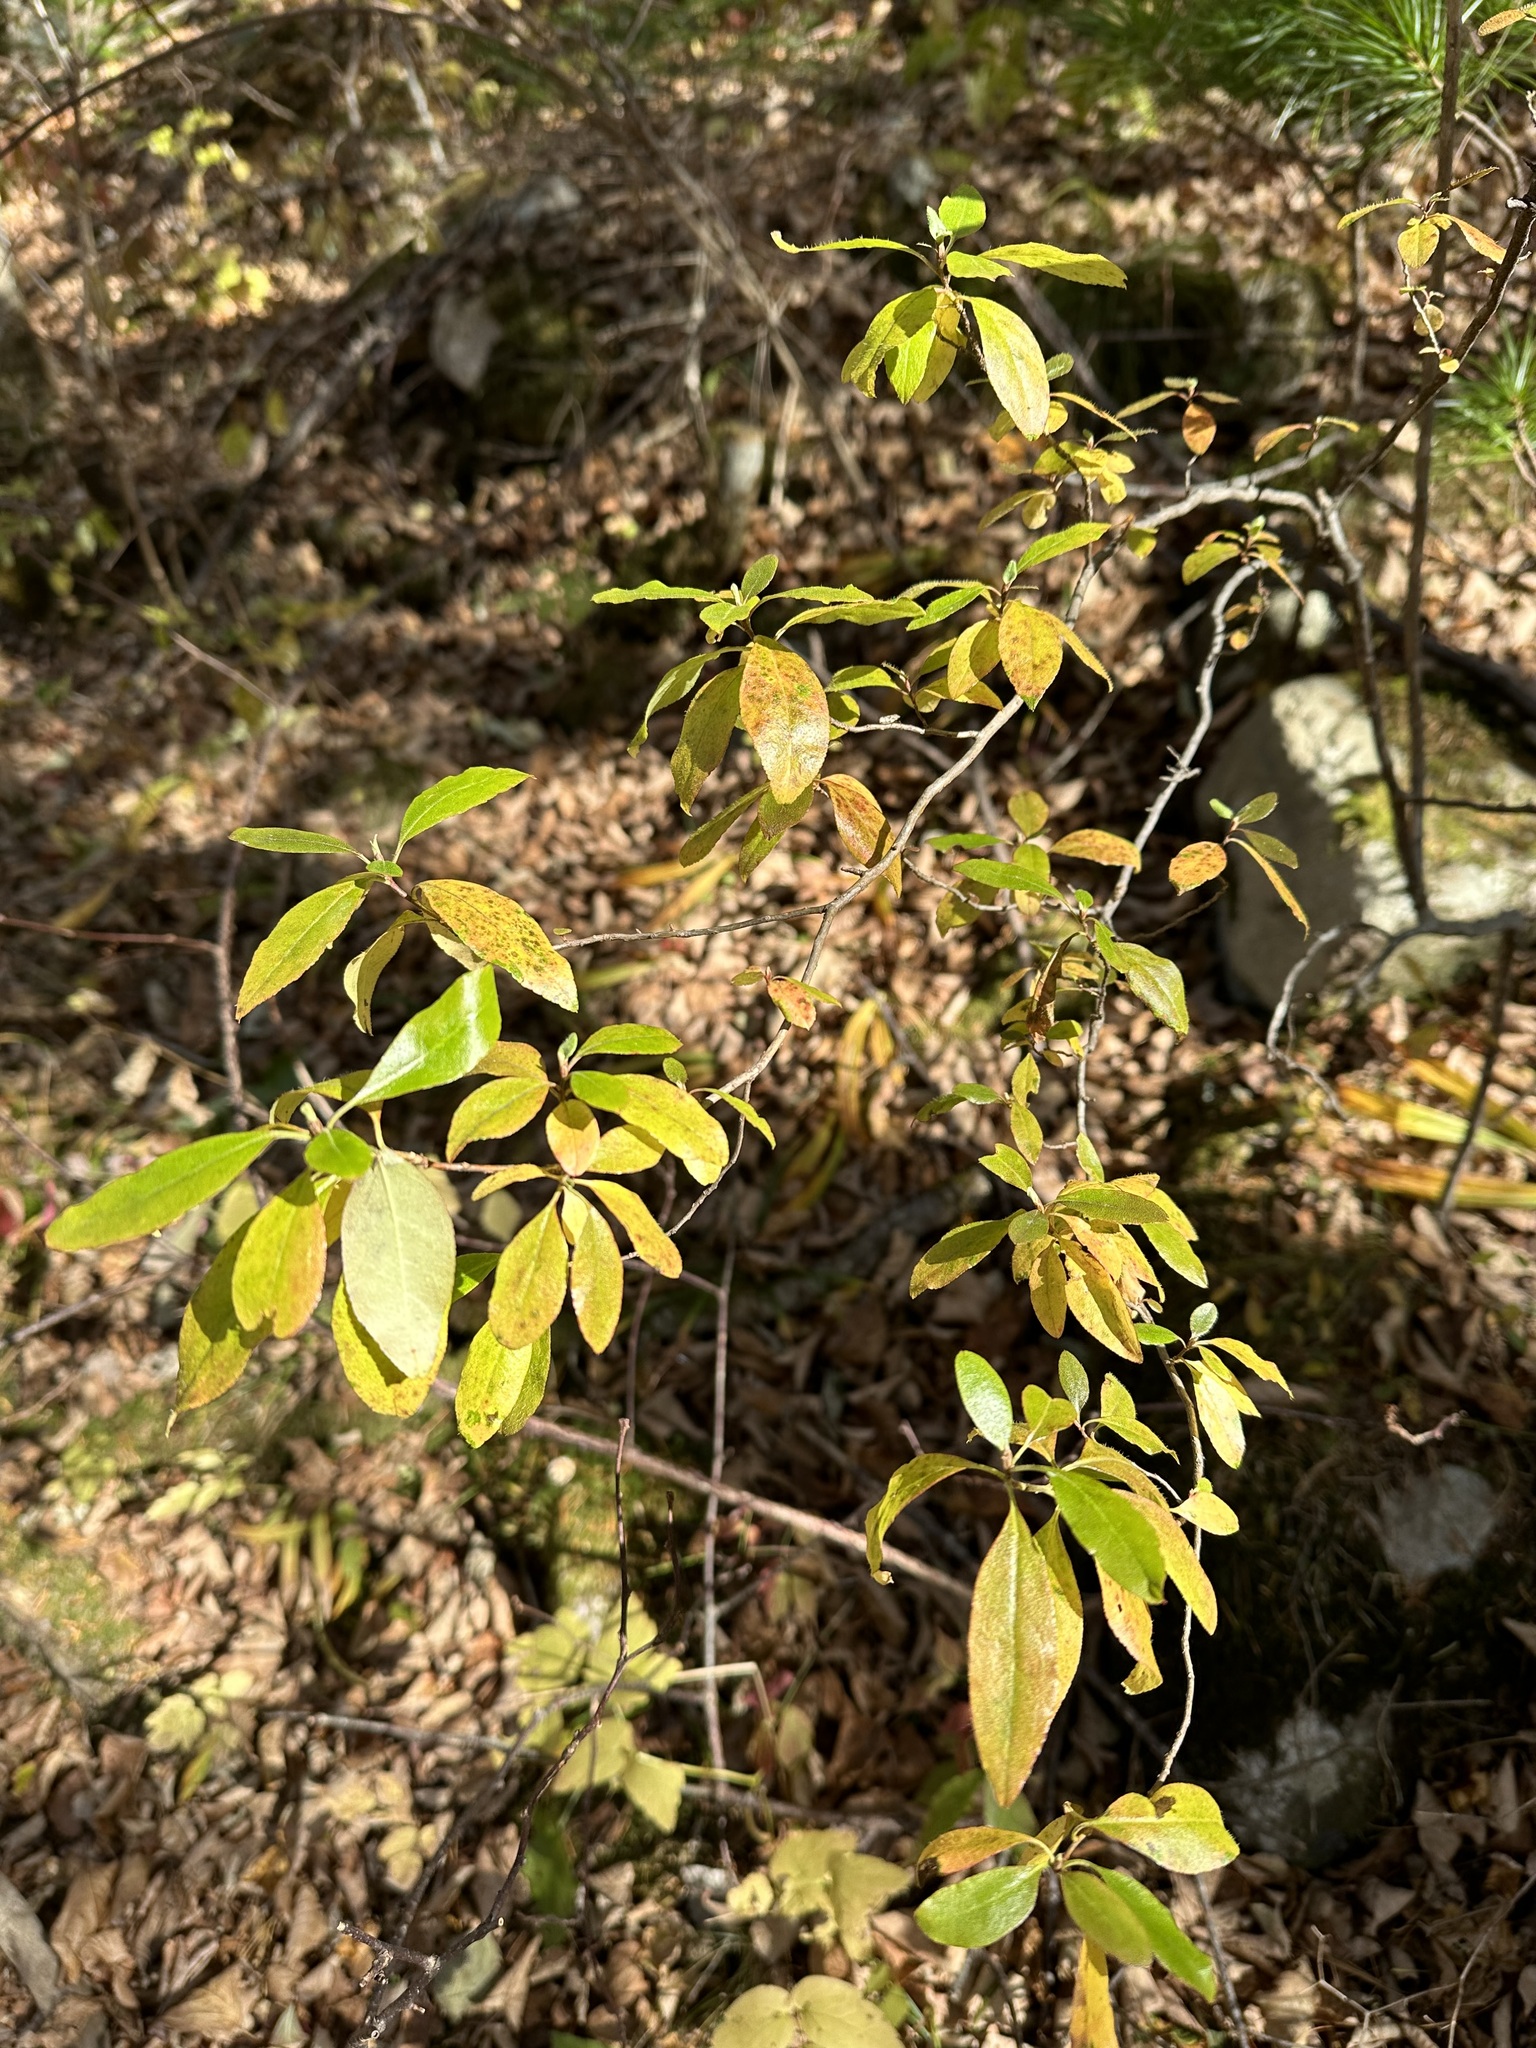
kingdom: Plantae
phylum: Tracheophyta
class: Magnoliopsida
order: Ericales
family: Ericaceae
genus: Rhododendron
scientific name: Rhododendron mucronulatum
